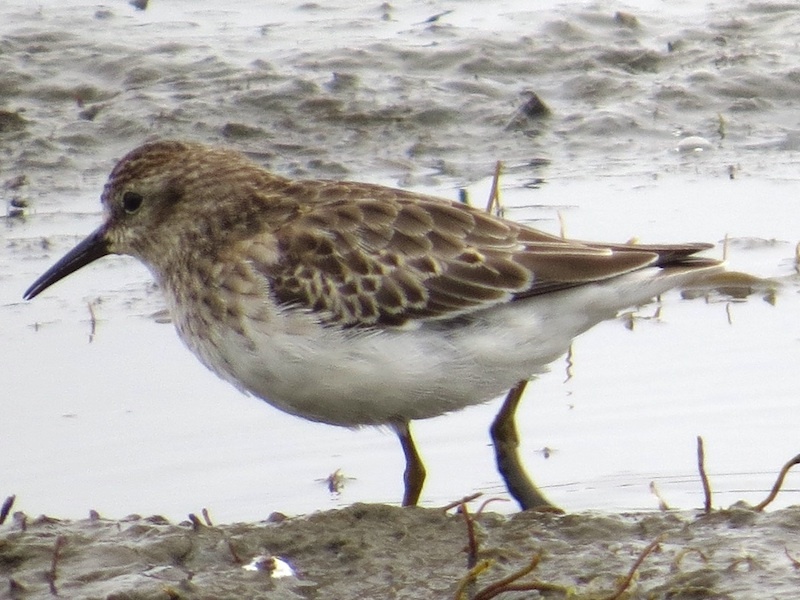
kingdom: Animalia
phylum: Chordata
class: Aves
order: Charadriiformes
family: Scolopacidae
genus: Calidris
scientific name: Calidris minutilla
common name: Least sandpiper
